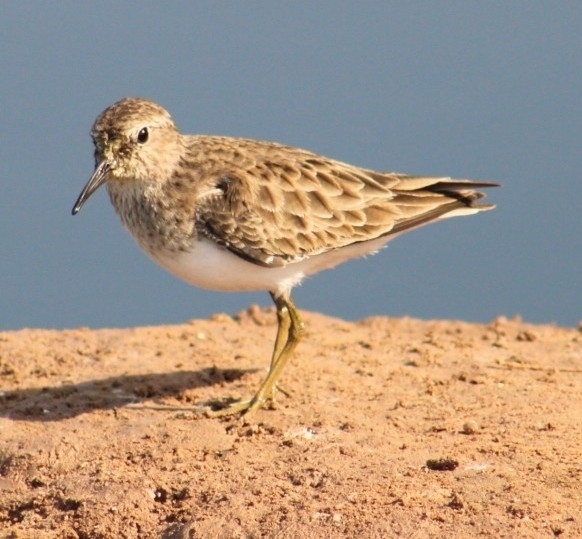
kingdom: Animalia
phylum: Chordata
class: Aves
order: Charadriiformes
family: Scolopacidae
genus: Calidris
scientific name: Calidris minutilla
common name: Least sandpiper
